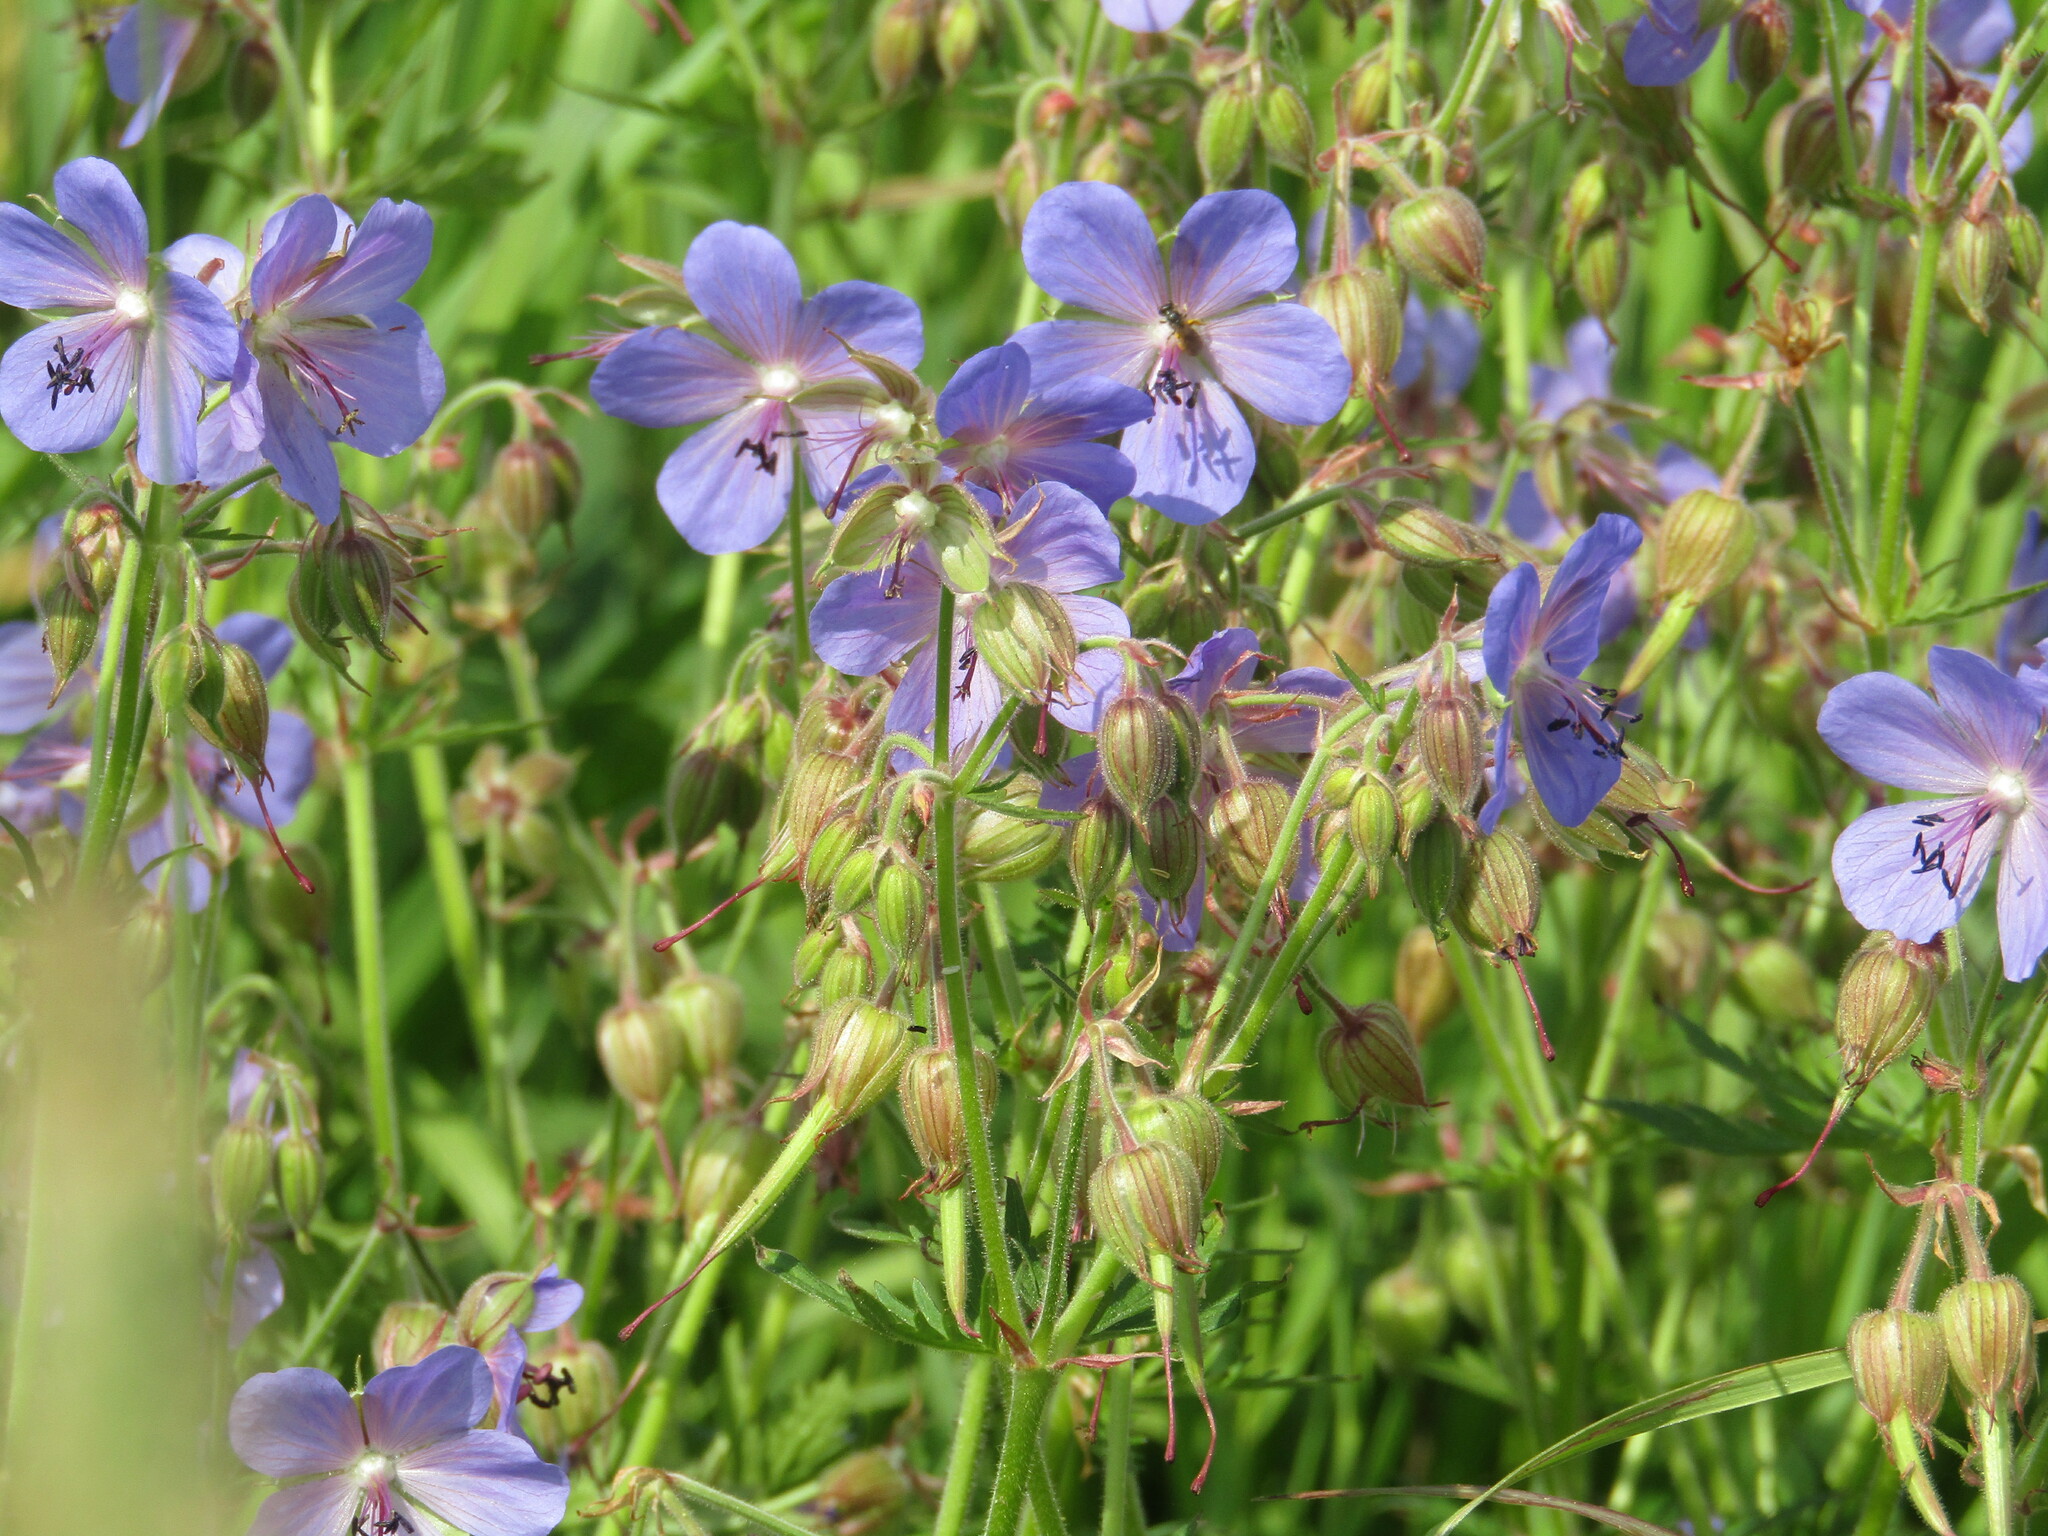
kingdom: Plantae
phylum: Tracheophyta
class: Magnoliopsida
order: Geraniales
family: Geraniaceae
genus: Geranium
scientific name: Geranium pratense
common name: Meadow crane's-bill
